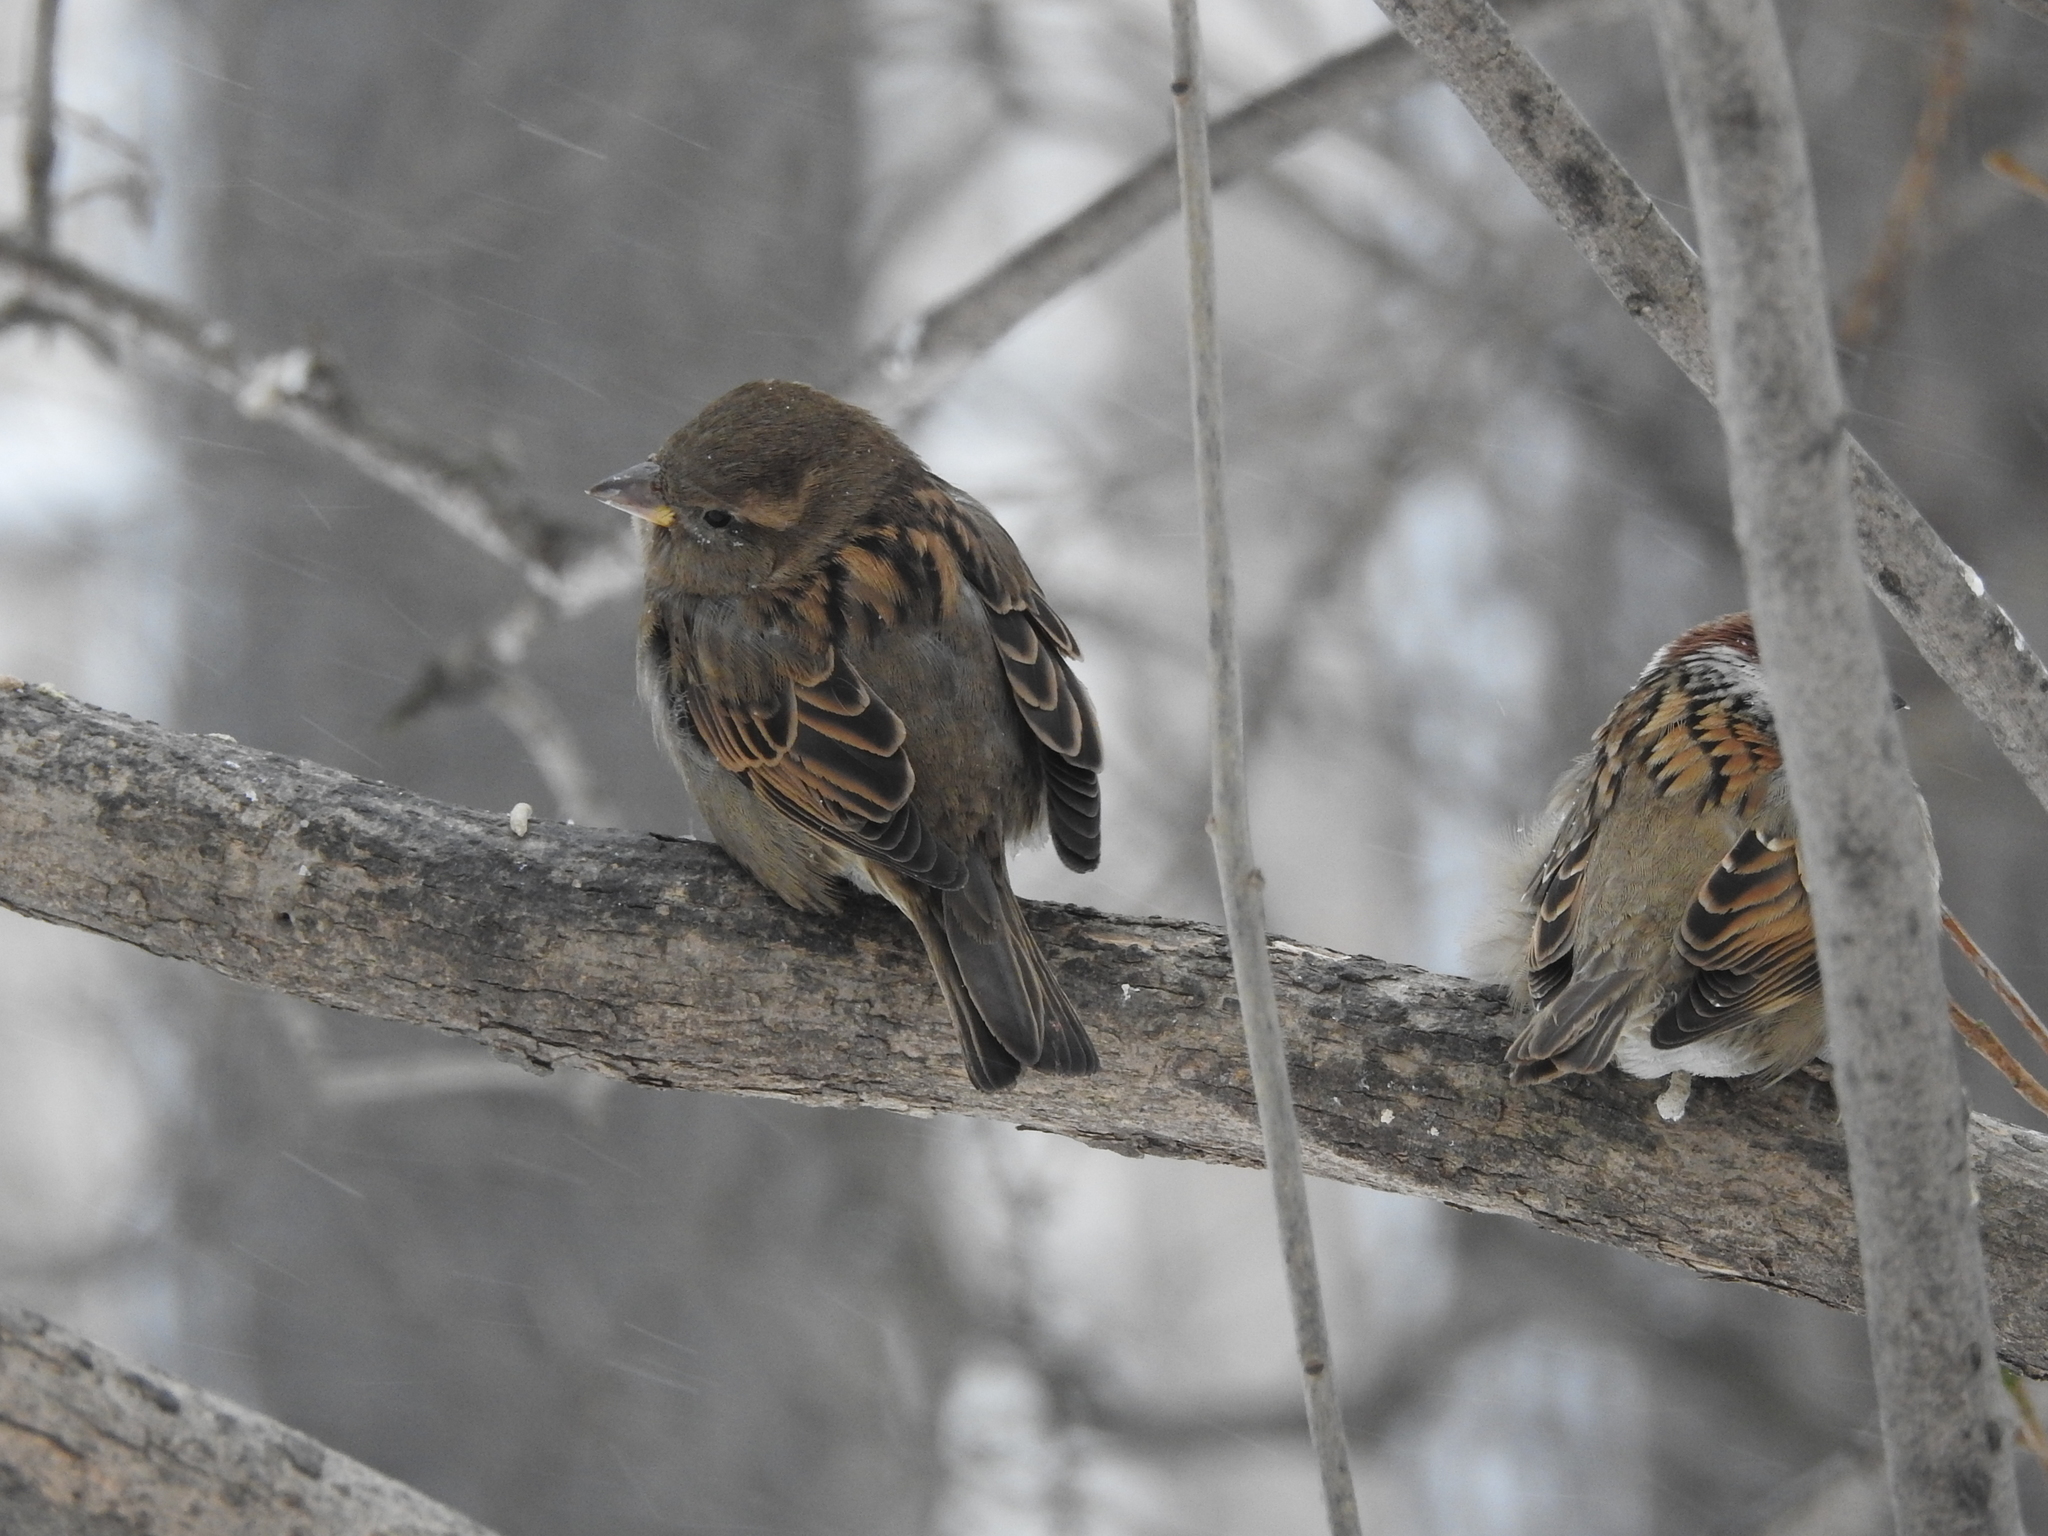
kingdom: Animalia
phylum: Chordata
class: Aves
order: Passeriformes
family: Passeridae
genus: Passer
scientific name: Passer domesticus
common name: House sparrow
